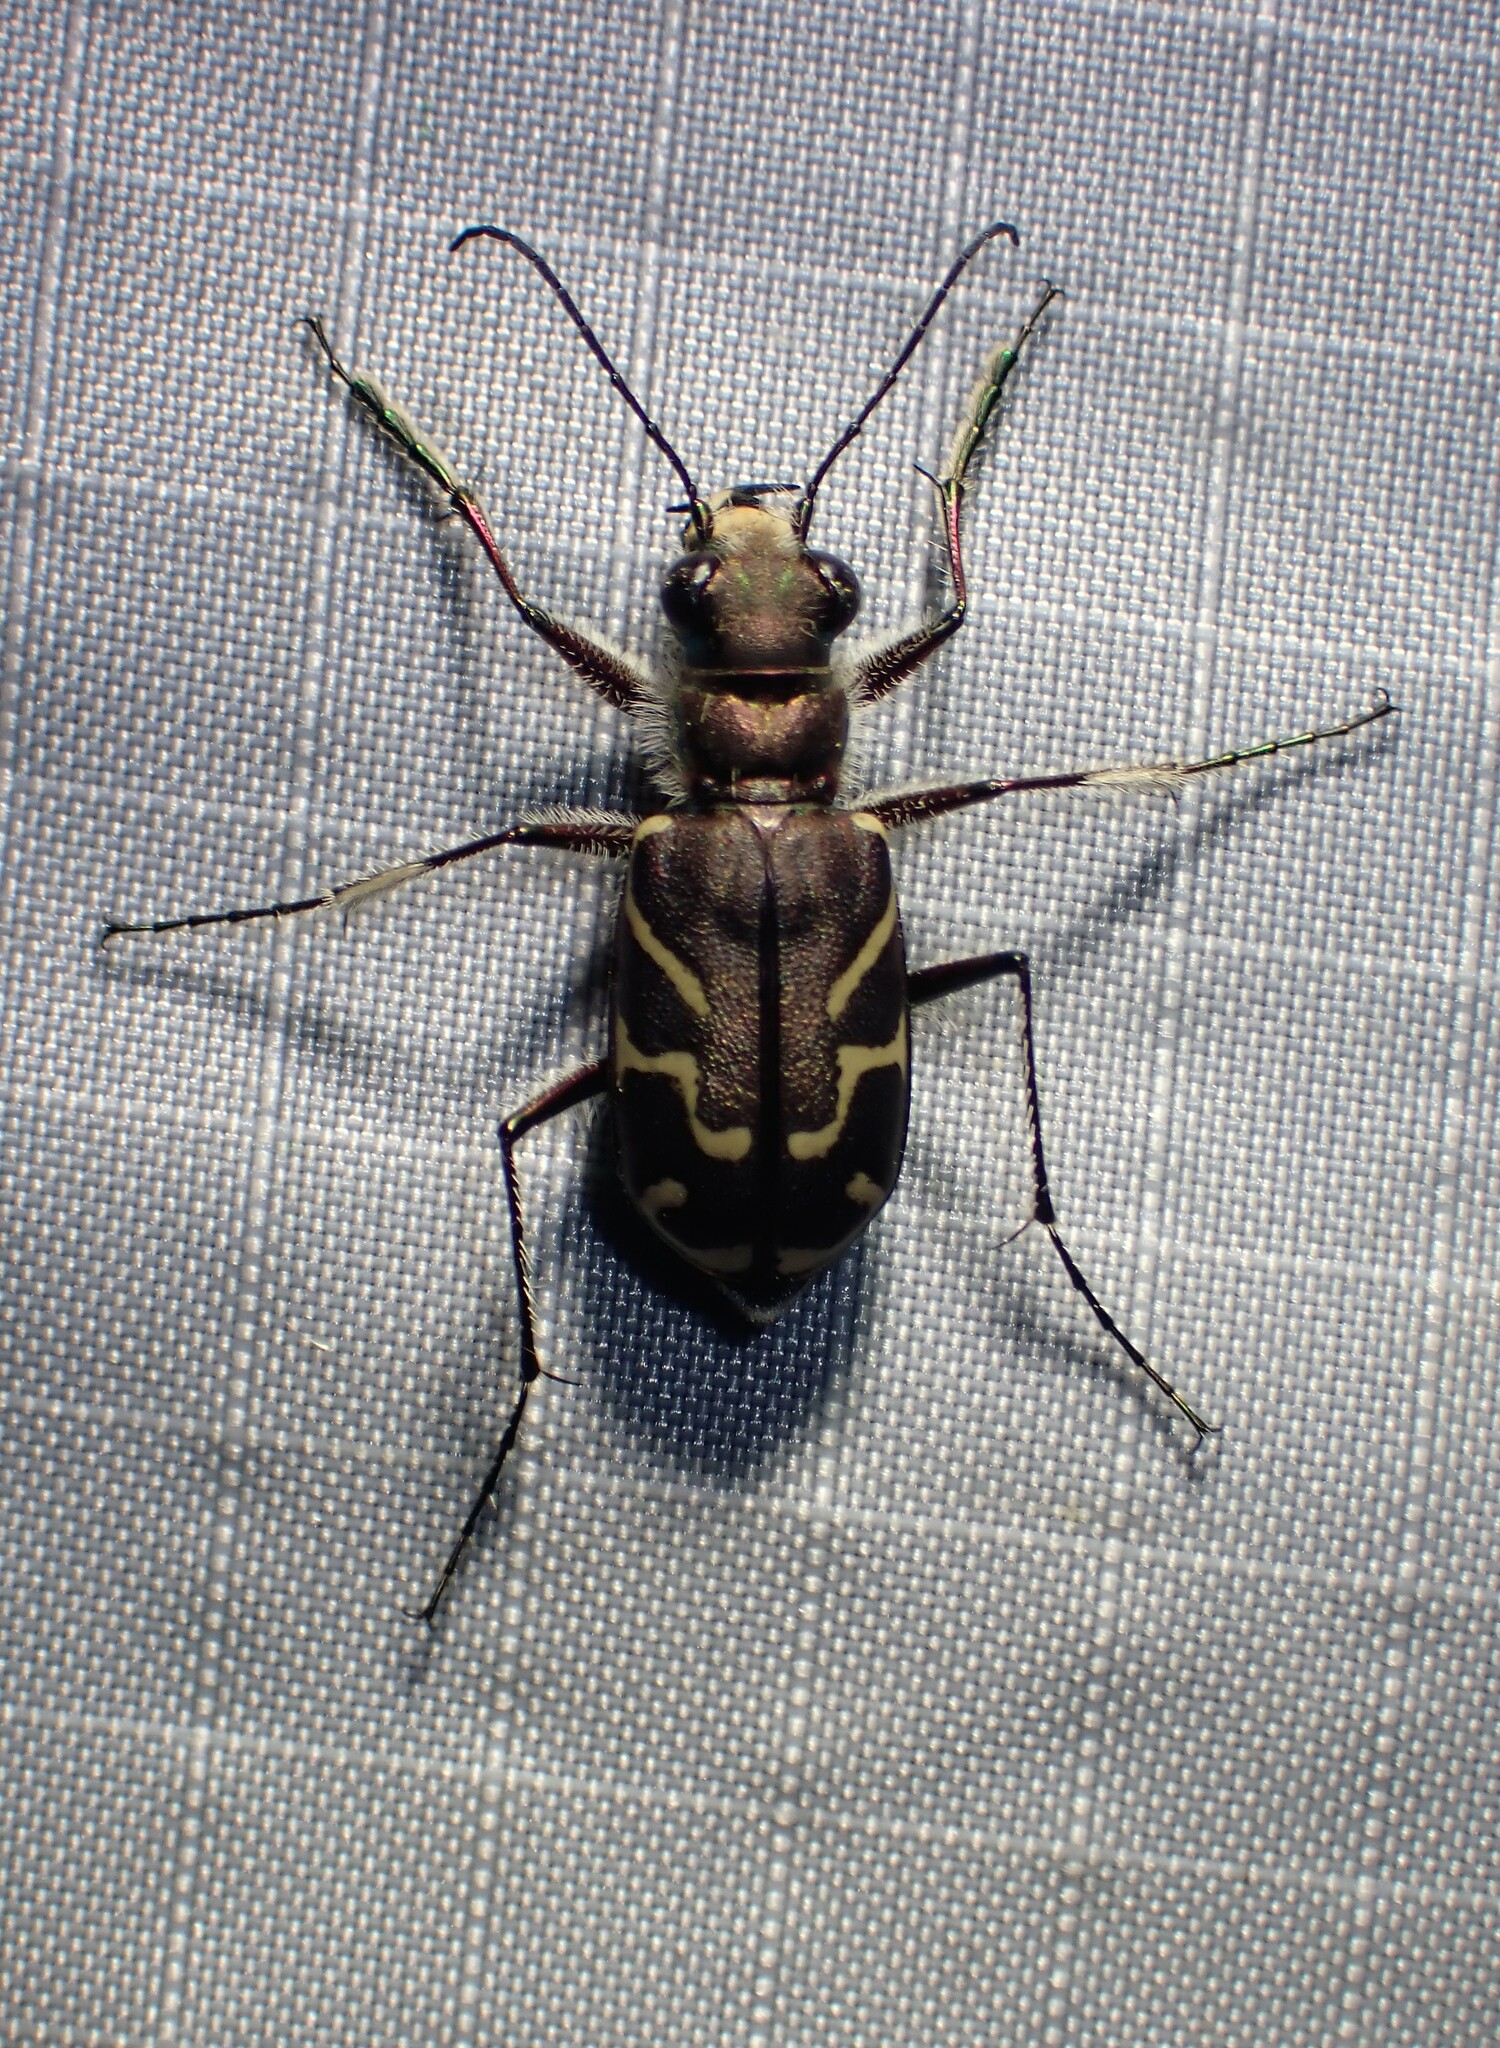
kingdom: Animalia
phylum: Arthropoda
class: Insecta
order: Coleoptera
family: Carabidae
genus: Cicindela
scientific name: Cicindela tranquebarica
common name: Oblique-lined tiger beetle
